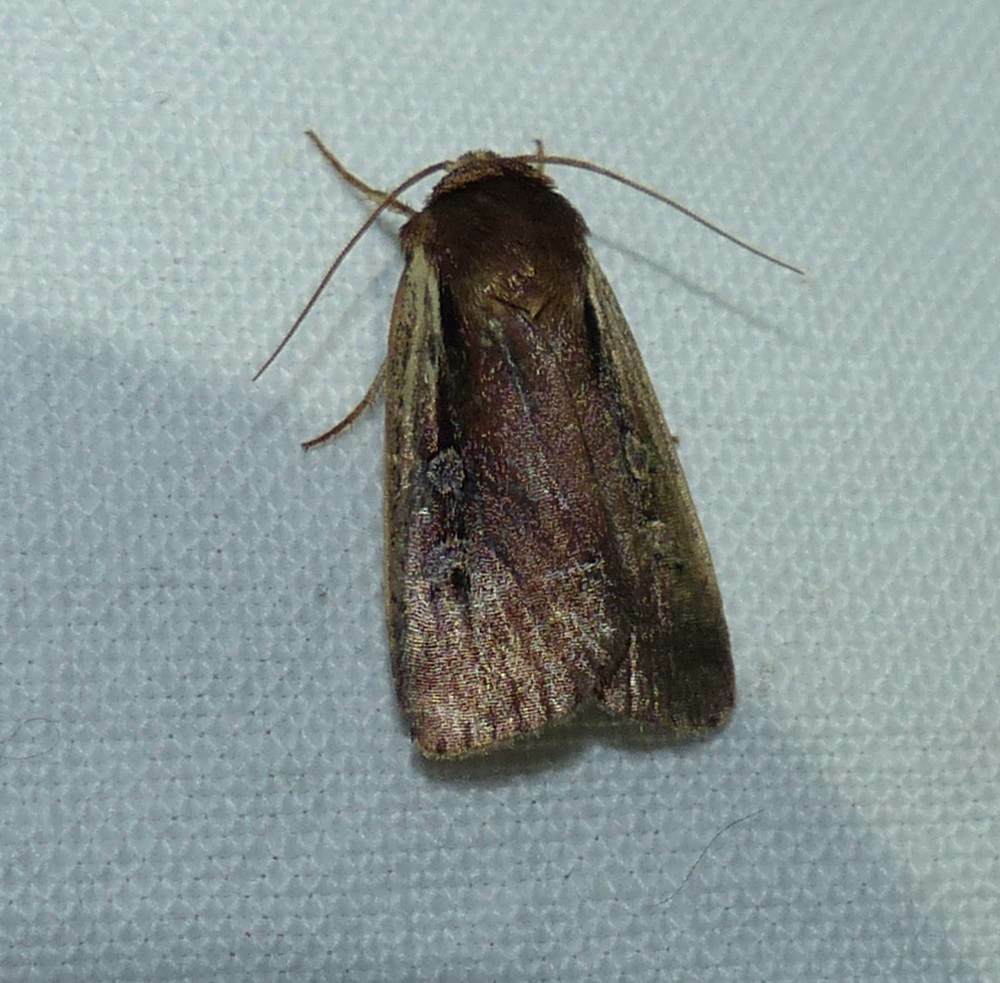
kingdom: Animalia
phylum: Arthropoda
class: Insecta
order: Lepidoptera
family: Noctuidae
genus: Ochropleura
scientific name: Ochropleura implecta
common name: Flame-shouldered dart
